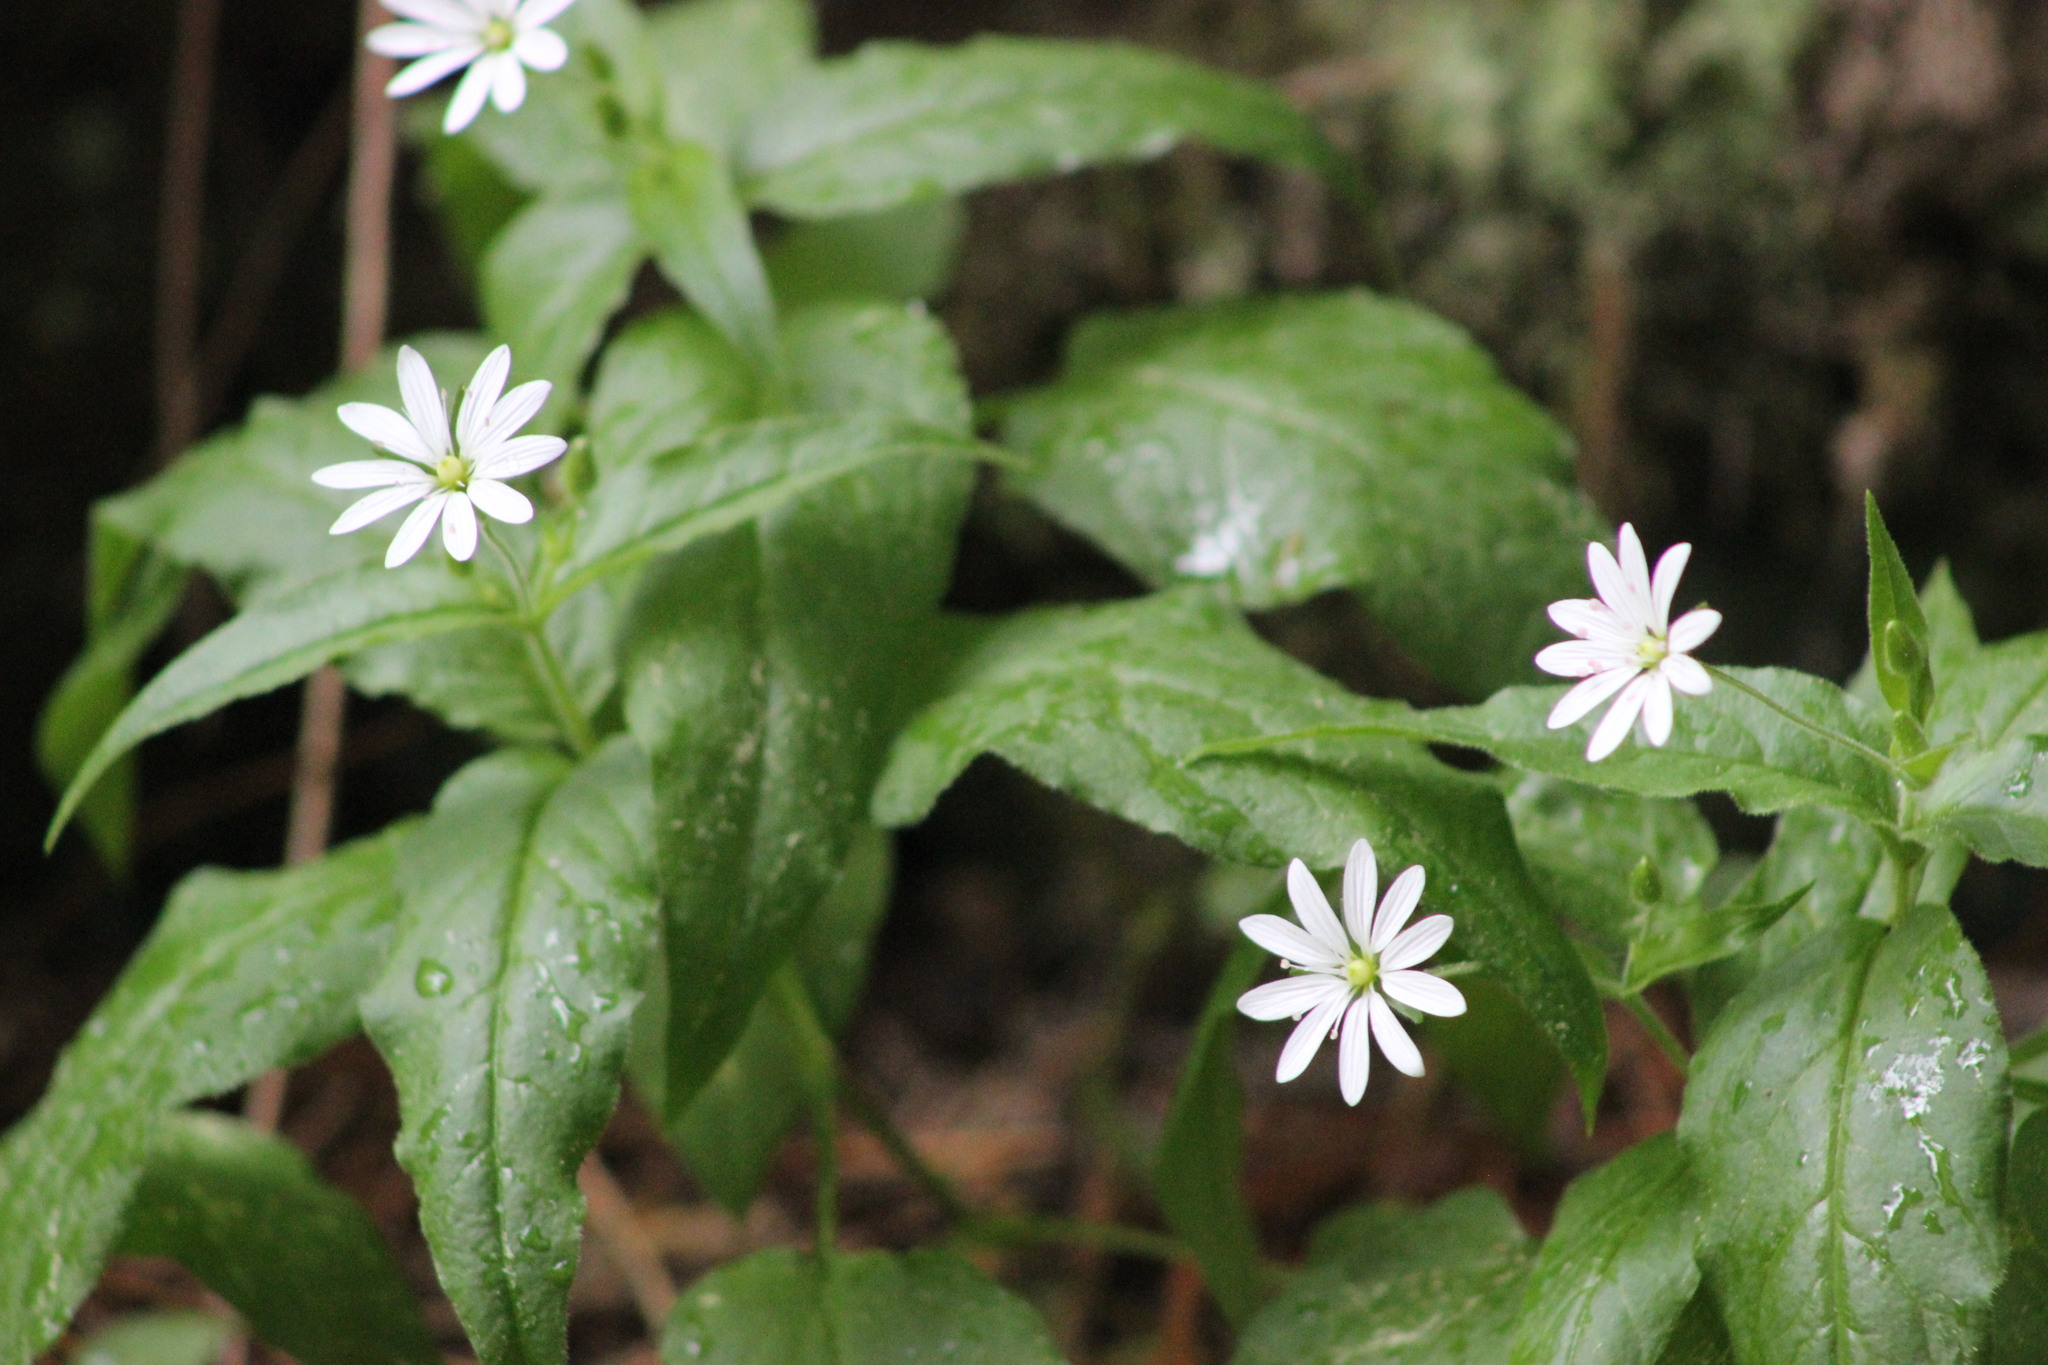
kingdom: Plantae
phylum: Tracheophyta
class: Magnoliopsida
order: Caryophyllales
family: Caryophyllaceae
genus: Stellaria
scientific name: Stellaria bungeana
